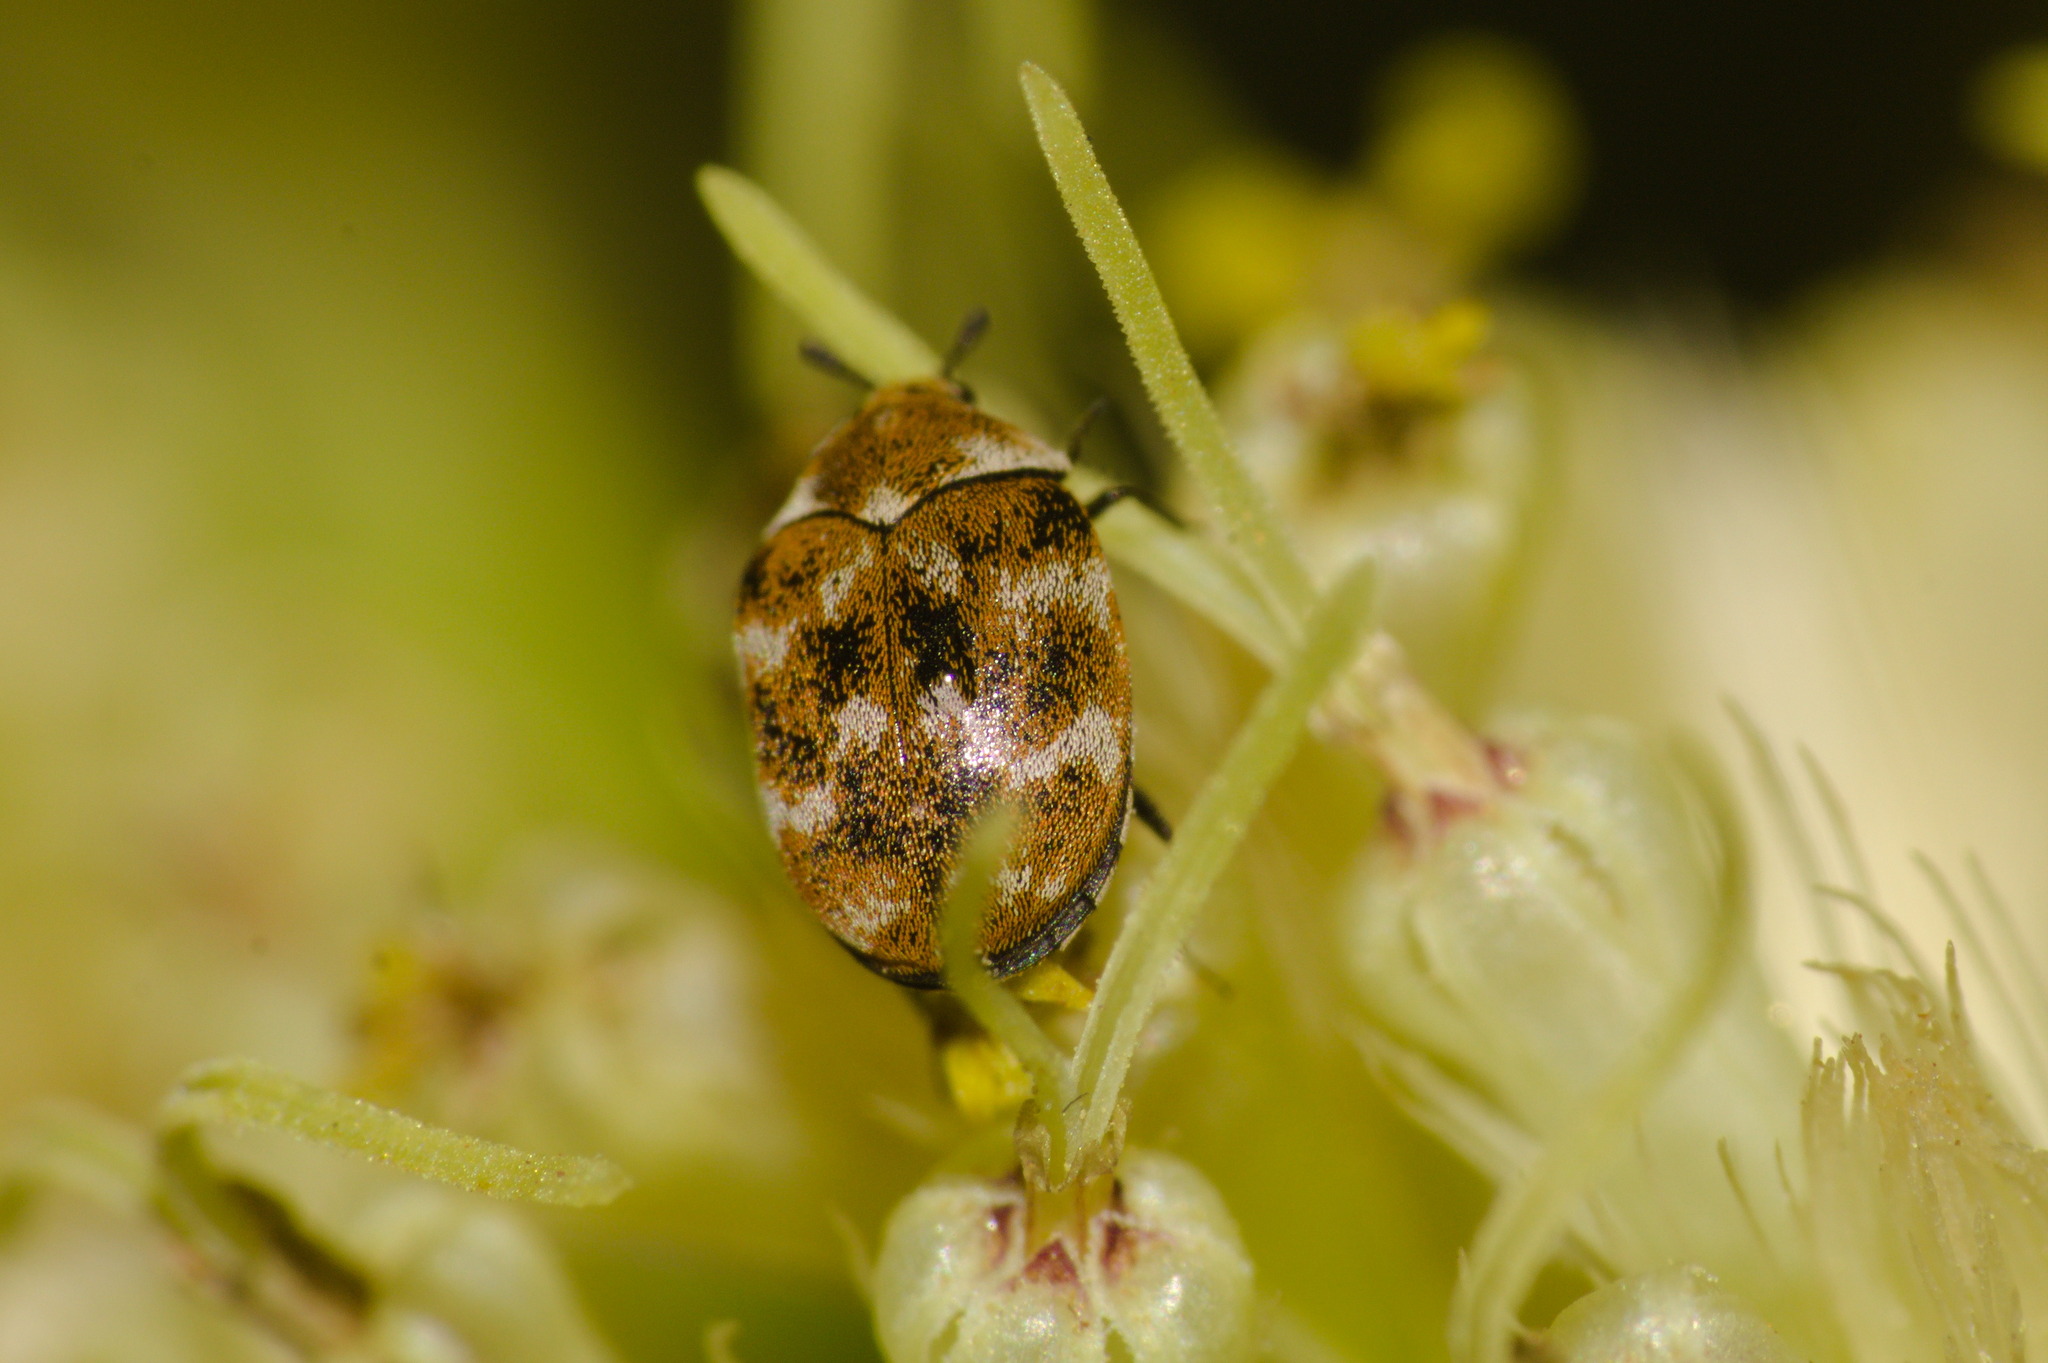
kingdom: Animalia
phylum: Arthropoda
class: Insecta
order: Coleoptera
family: Dermestidae
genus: Anthrenus
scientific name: Anthrenus verbasci
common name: Varied carpet beetle
